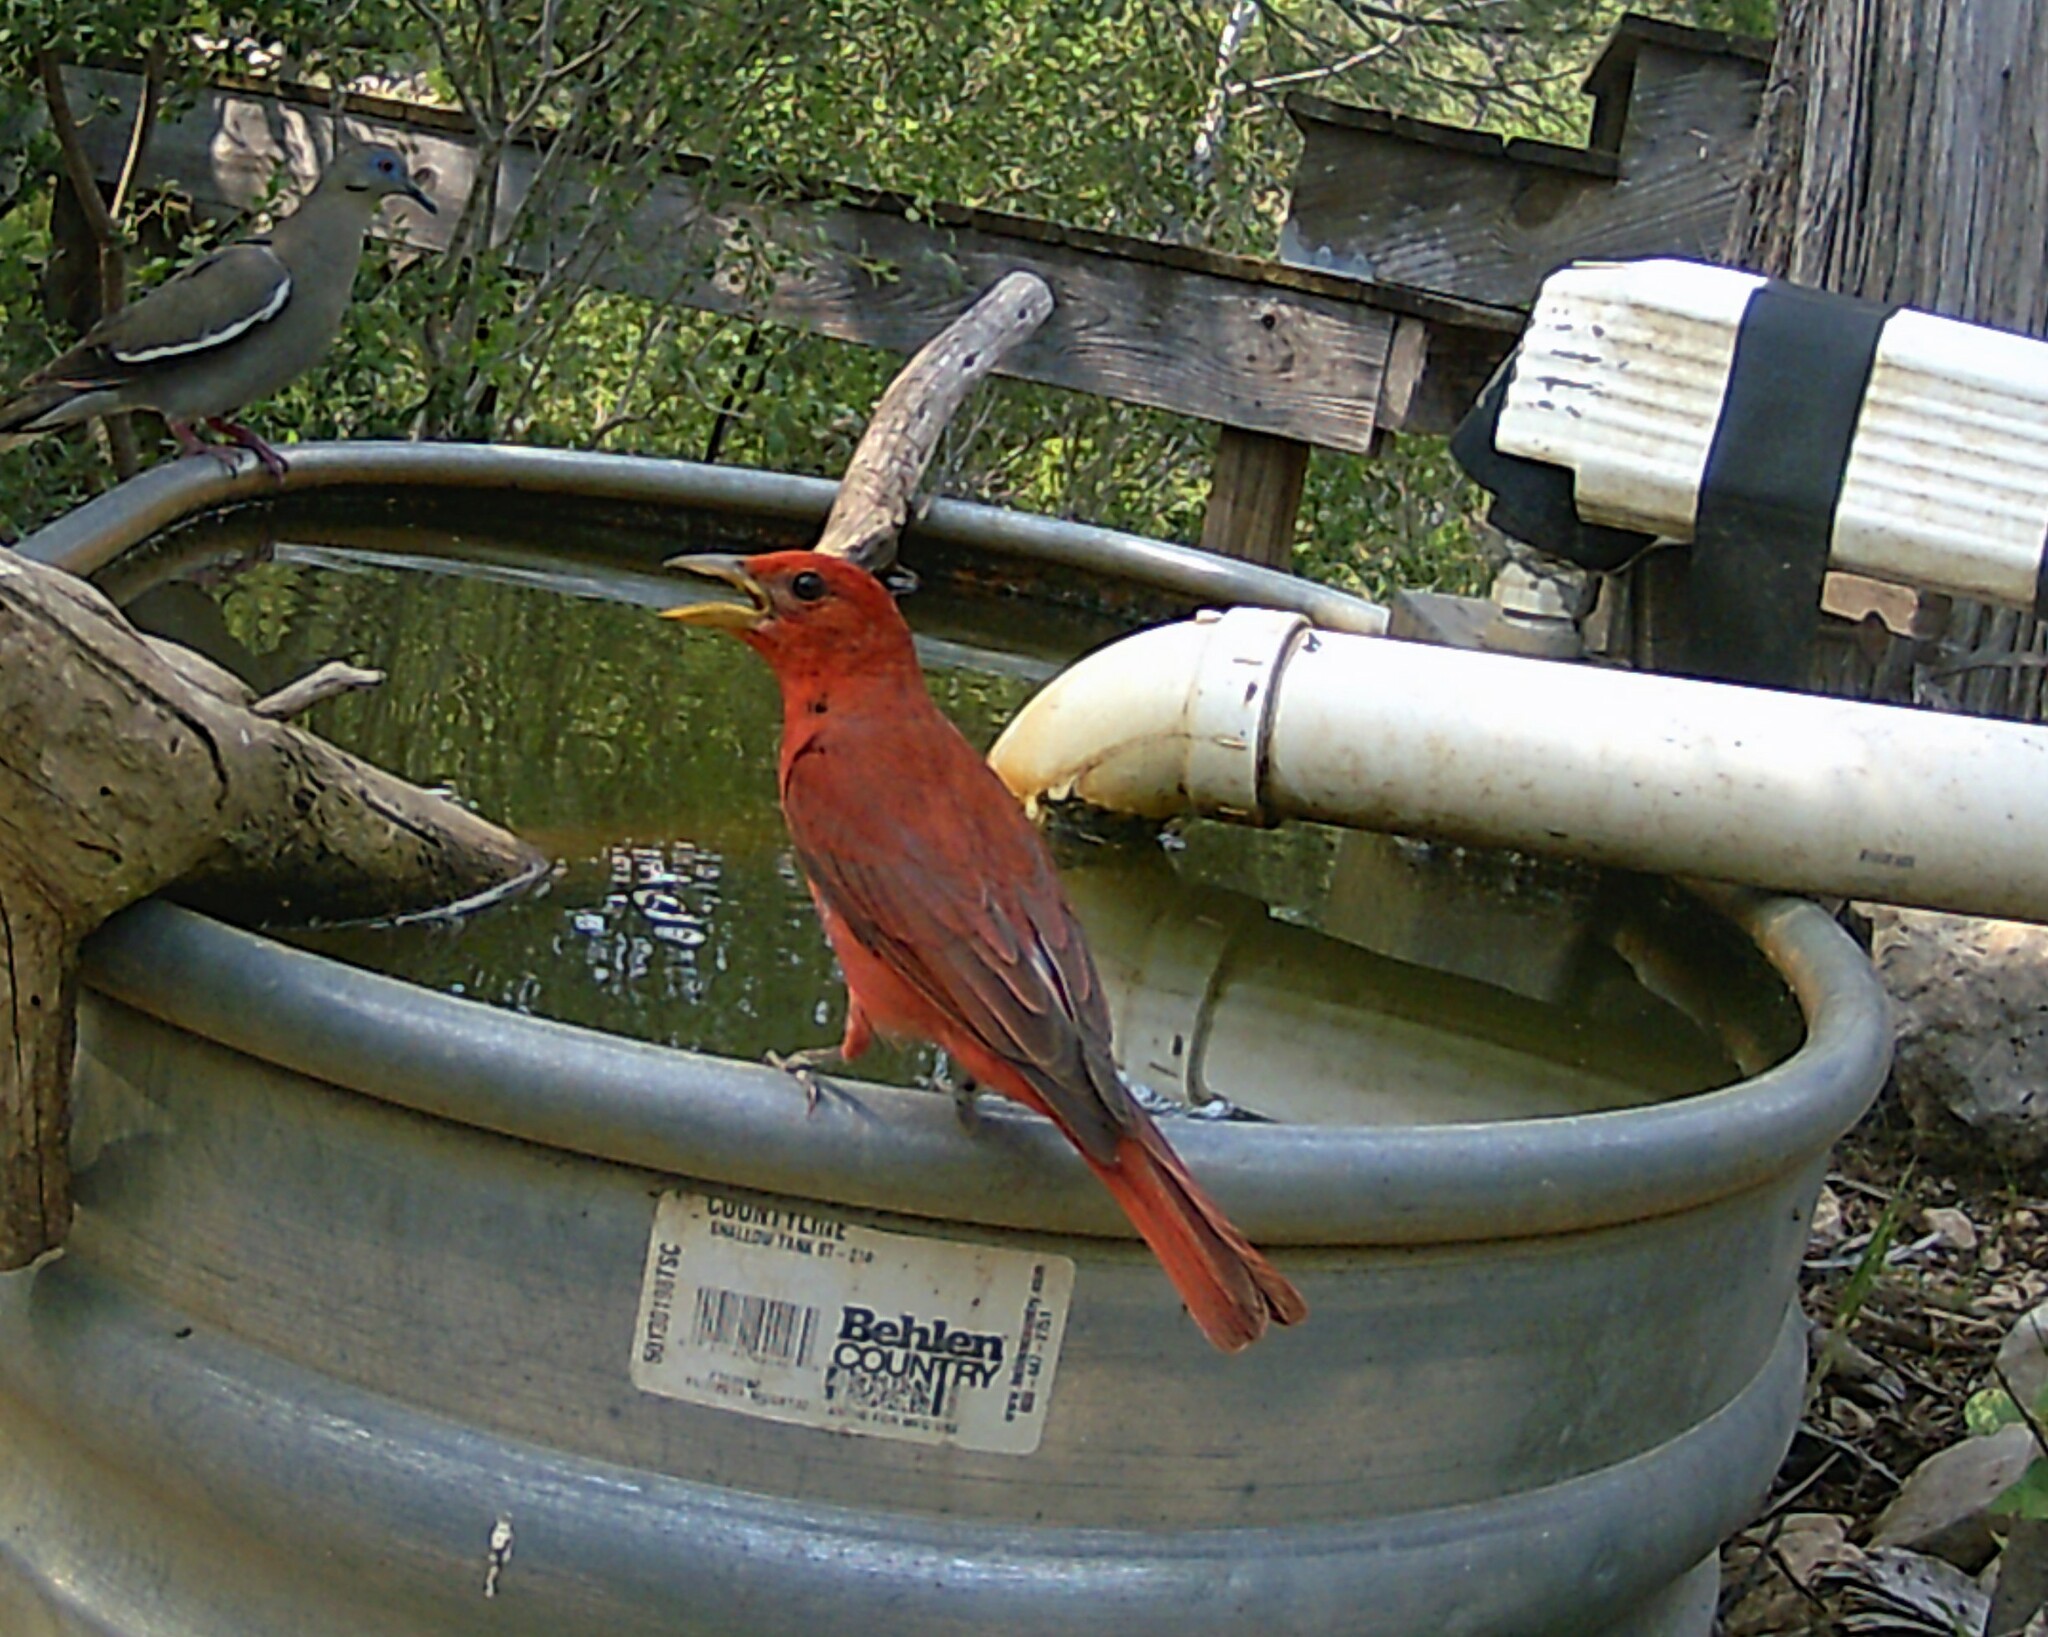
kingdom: Animalia
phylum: Chordata
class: Aves
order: Passeriformes
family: Cardinalidae
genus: Piranga
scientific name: Piranga rubra
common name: Summer tanager
